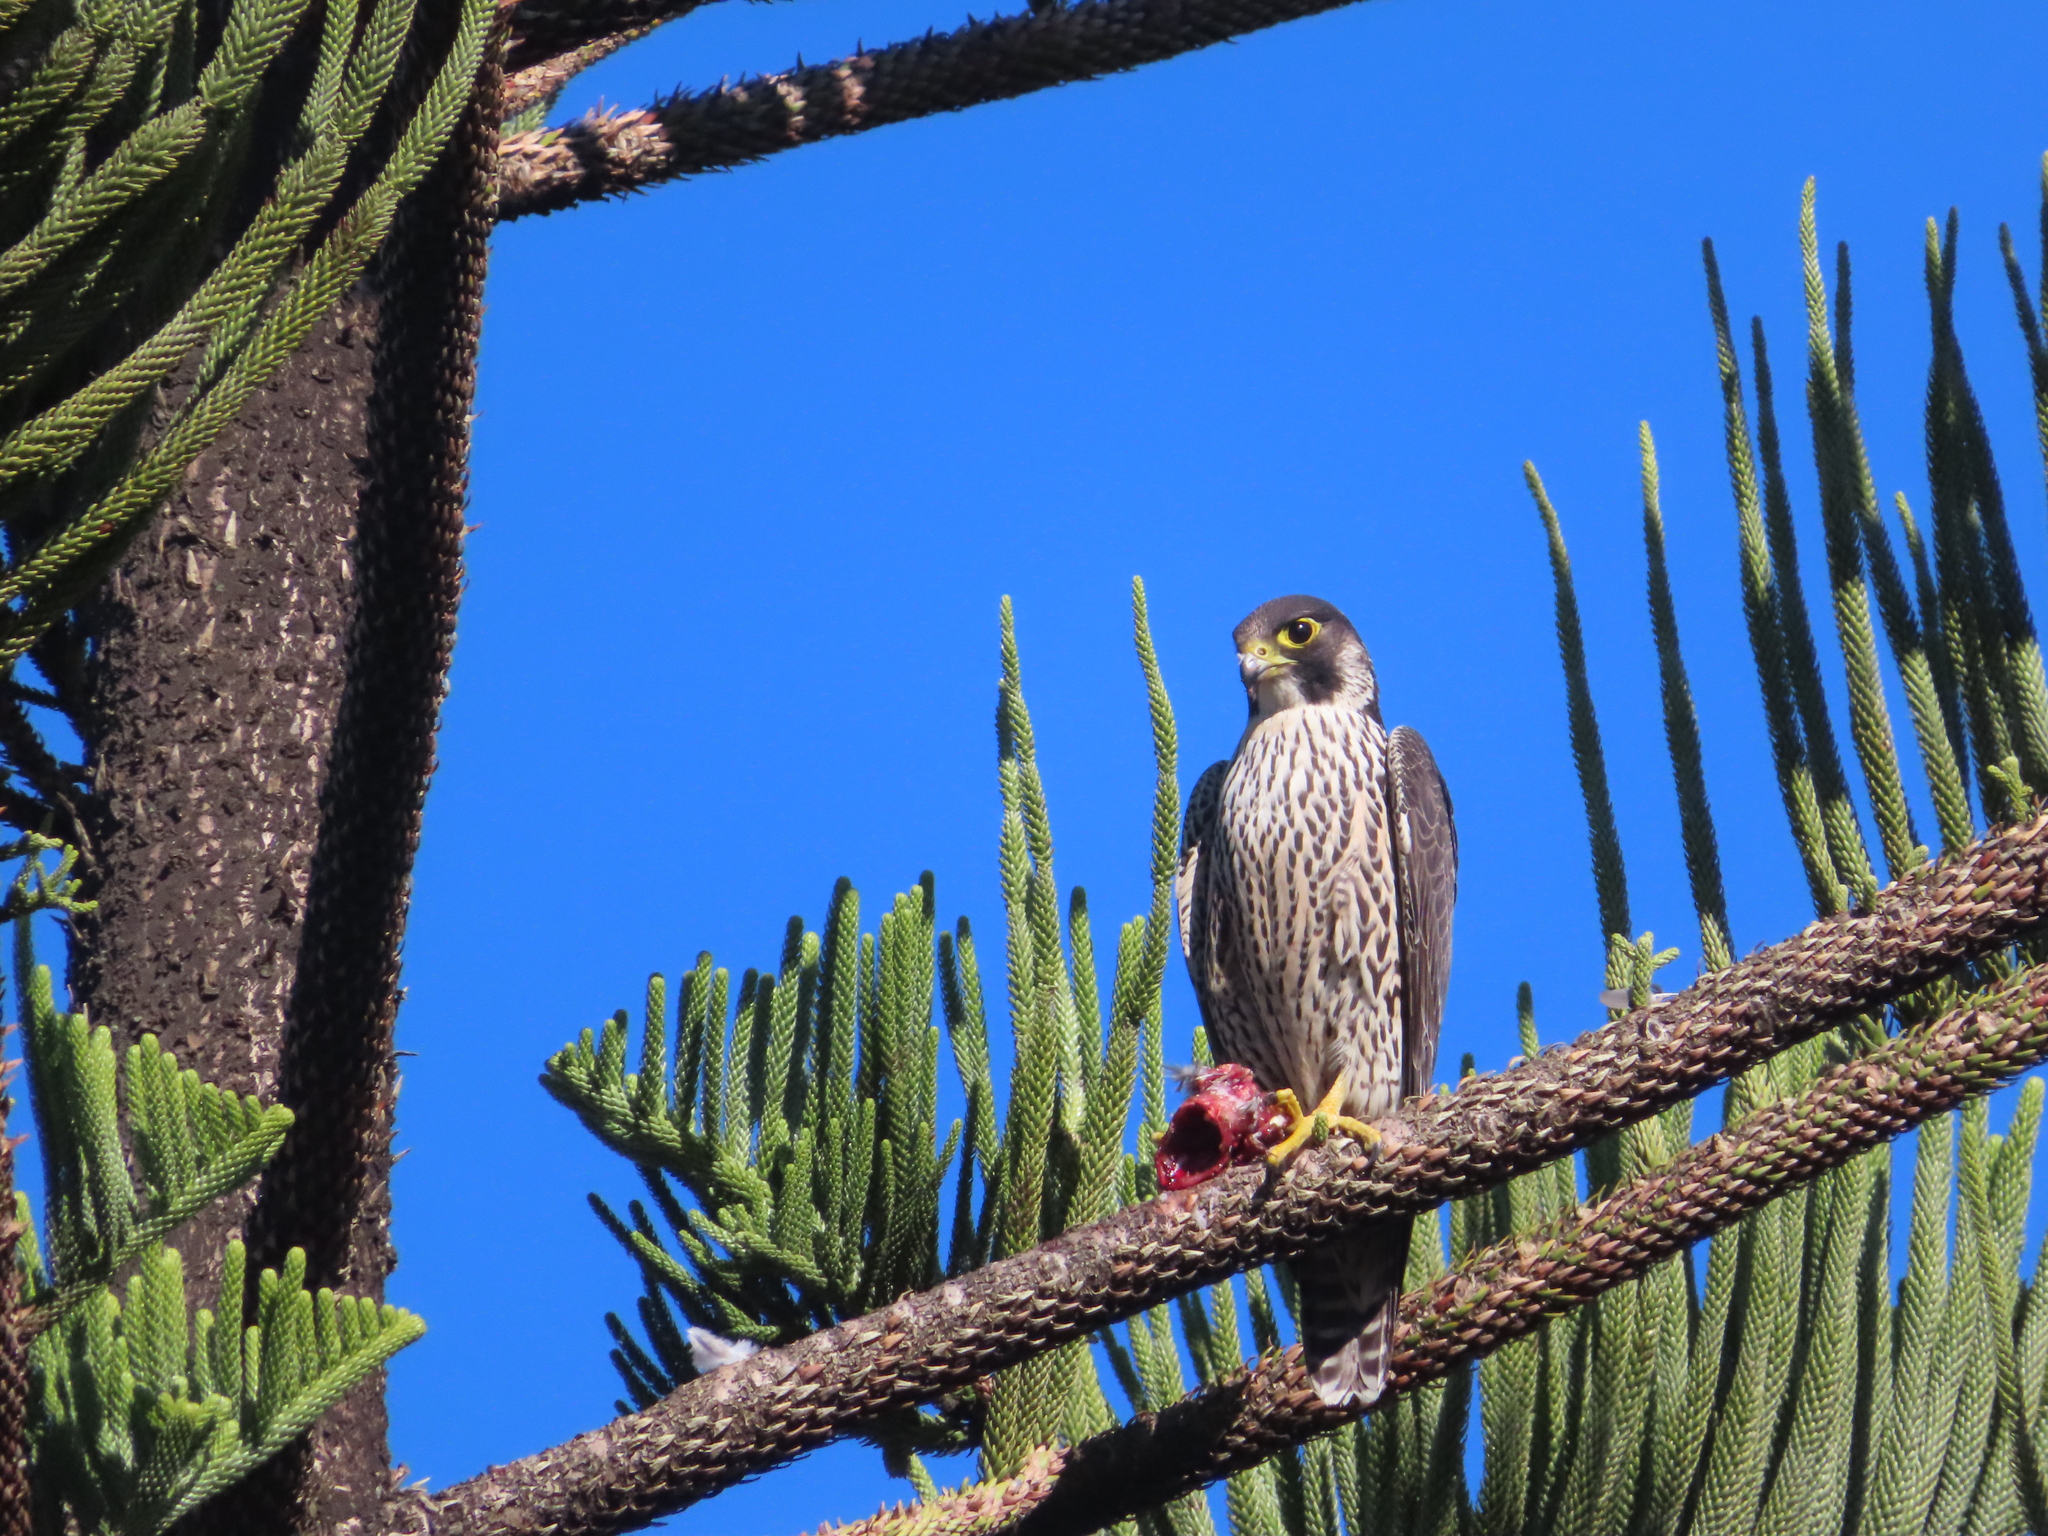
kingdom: Animalia
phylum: Chordata
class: Aves
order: Falconiformes
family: Falconidae
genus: Falco
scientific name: Falco peregrinus
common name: Peregrine falcon
